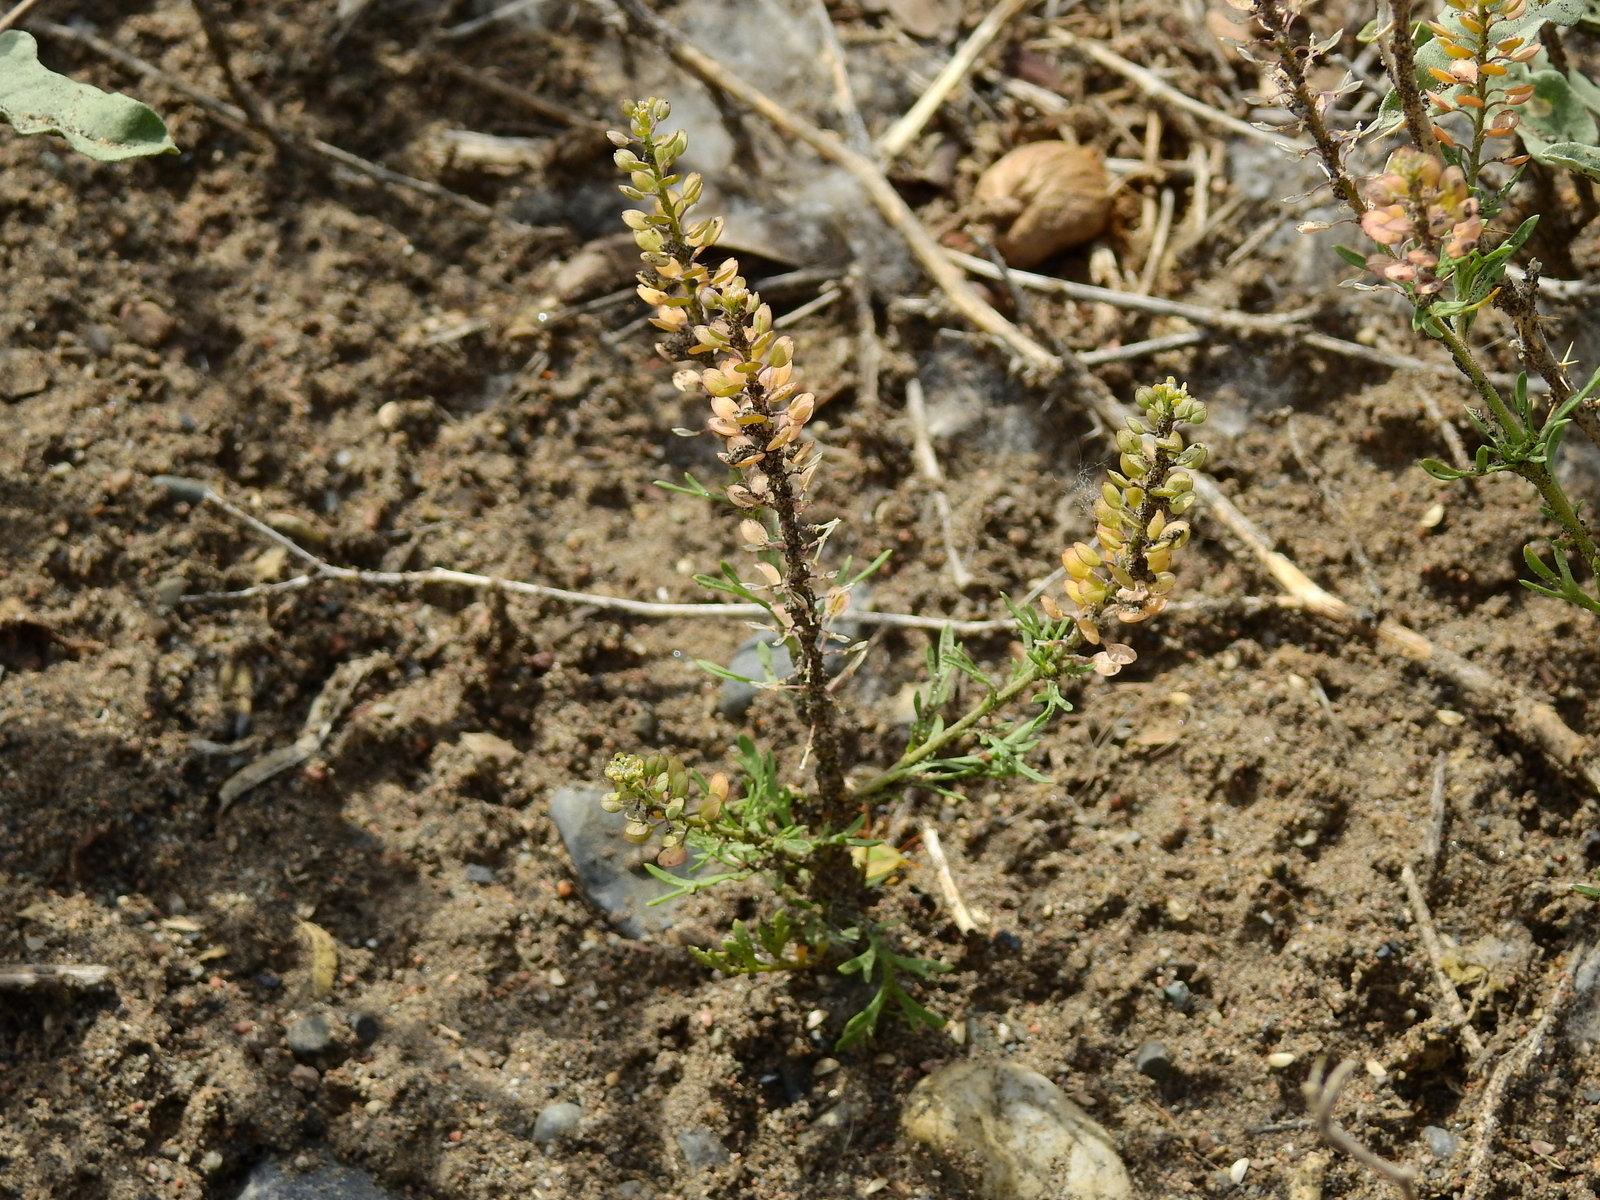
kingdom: Plantae
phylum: Tracheophyta
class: Magnoliopsida
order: Brassicales
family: Brassicaceae
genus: Lepidium
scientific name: Lepidium tandilense
